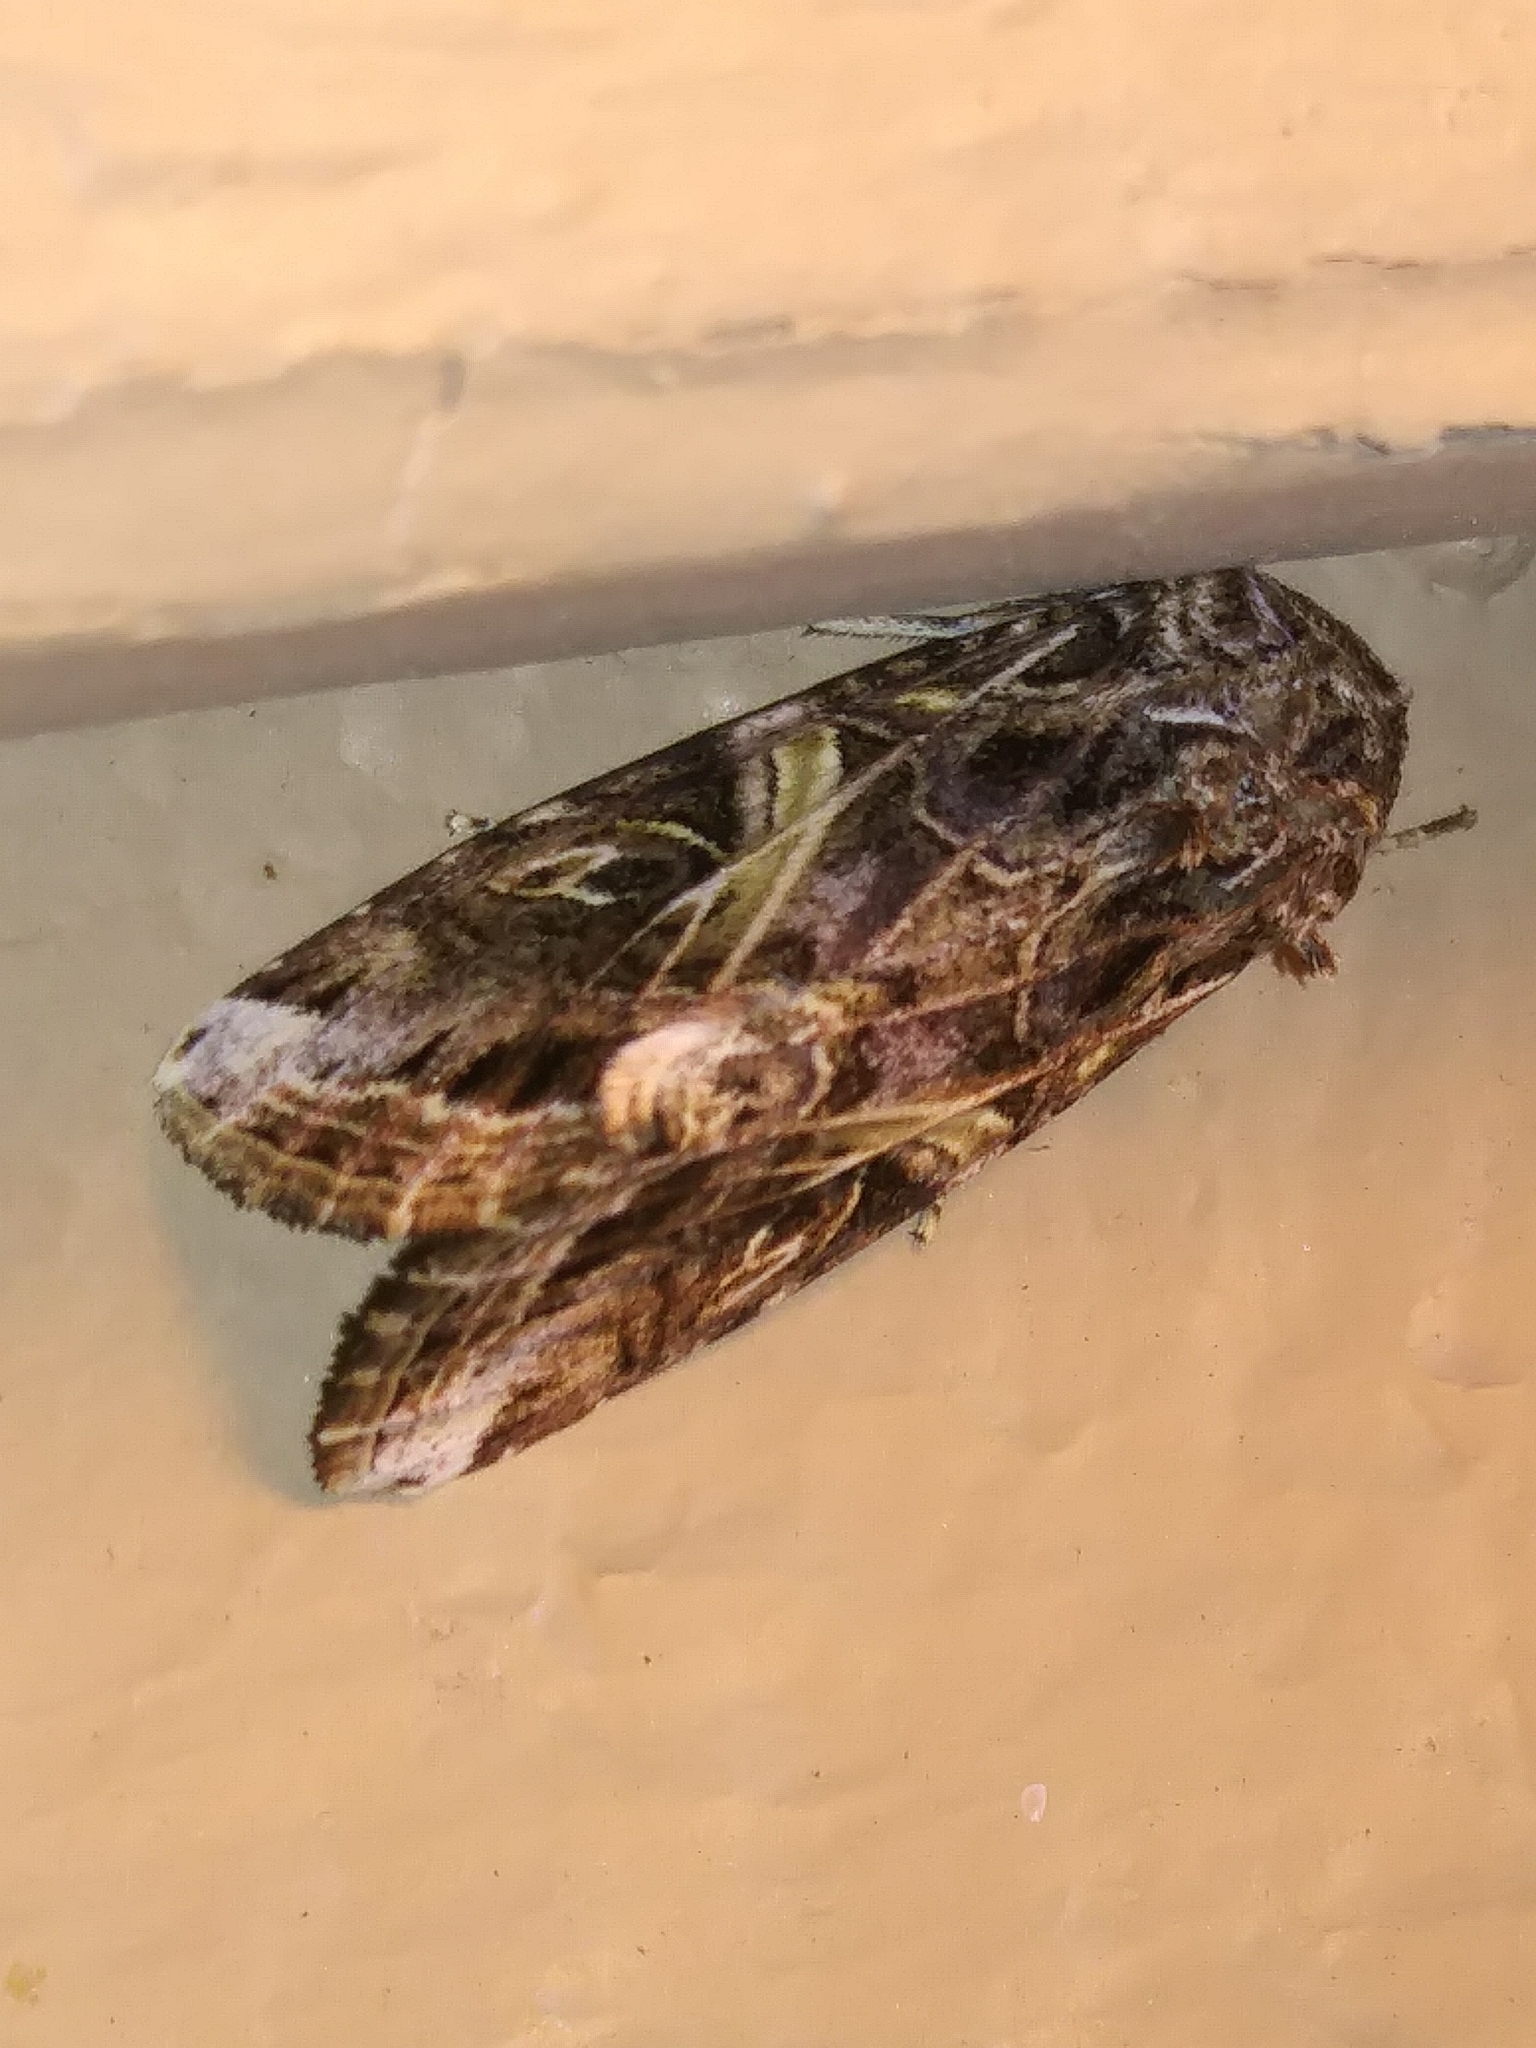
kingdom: Animalia
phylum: Arthropoda
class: Insecta
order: Lepidoptera
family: Noctuidae
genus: Spodoptera
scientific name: Spodoptera ornithogalli
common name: Yellow-striped armyworm
